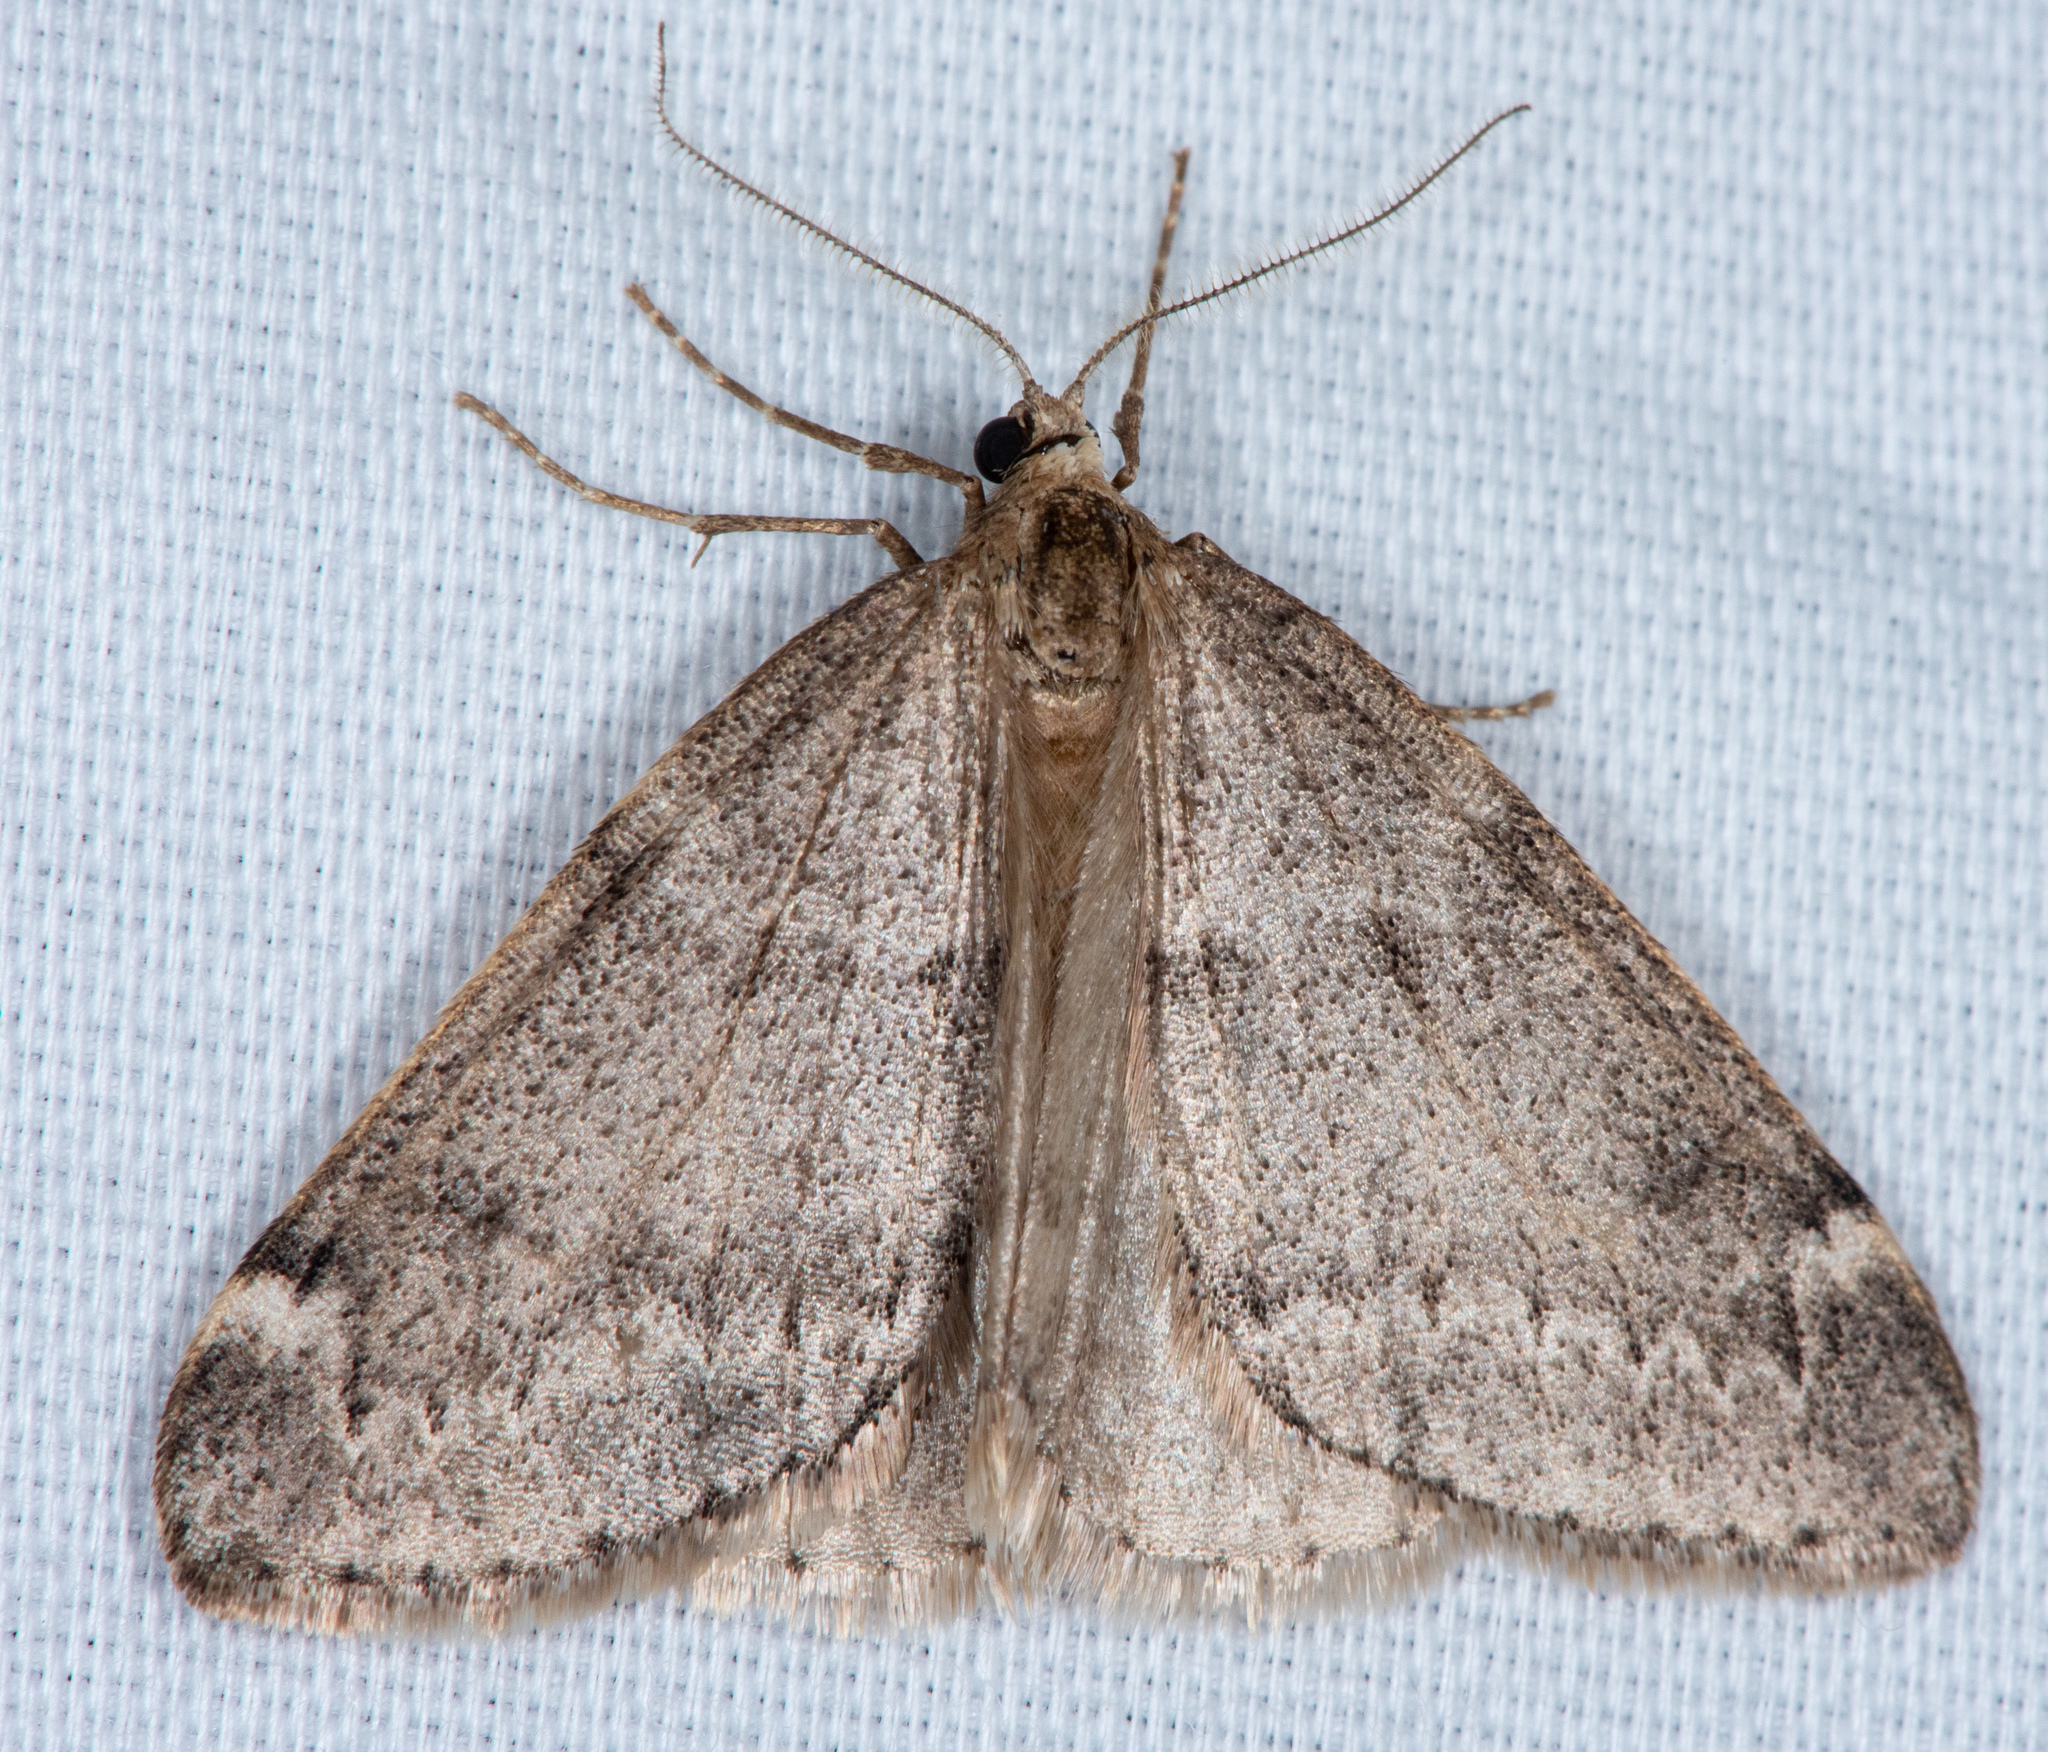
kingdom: Animalia
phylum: Arthropoda
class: Insecta
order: Lepidoptera
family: Geometridae
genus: Alsophila
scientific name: Alsophila pometaria
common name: Fall cankerworm
